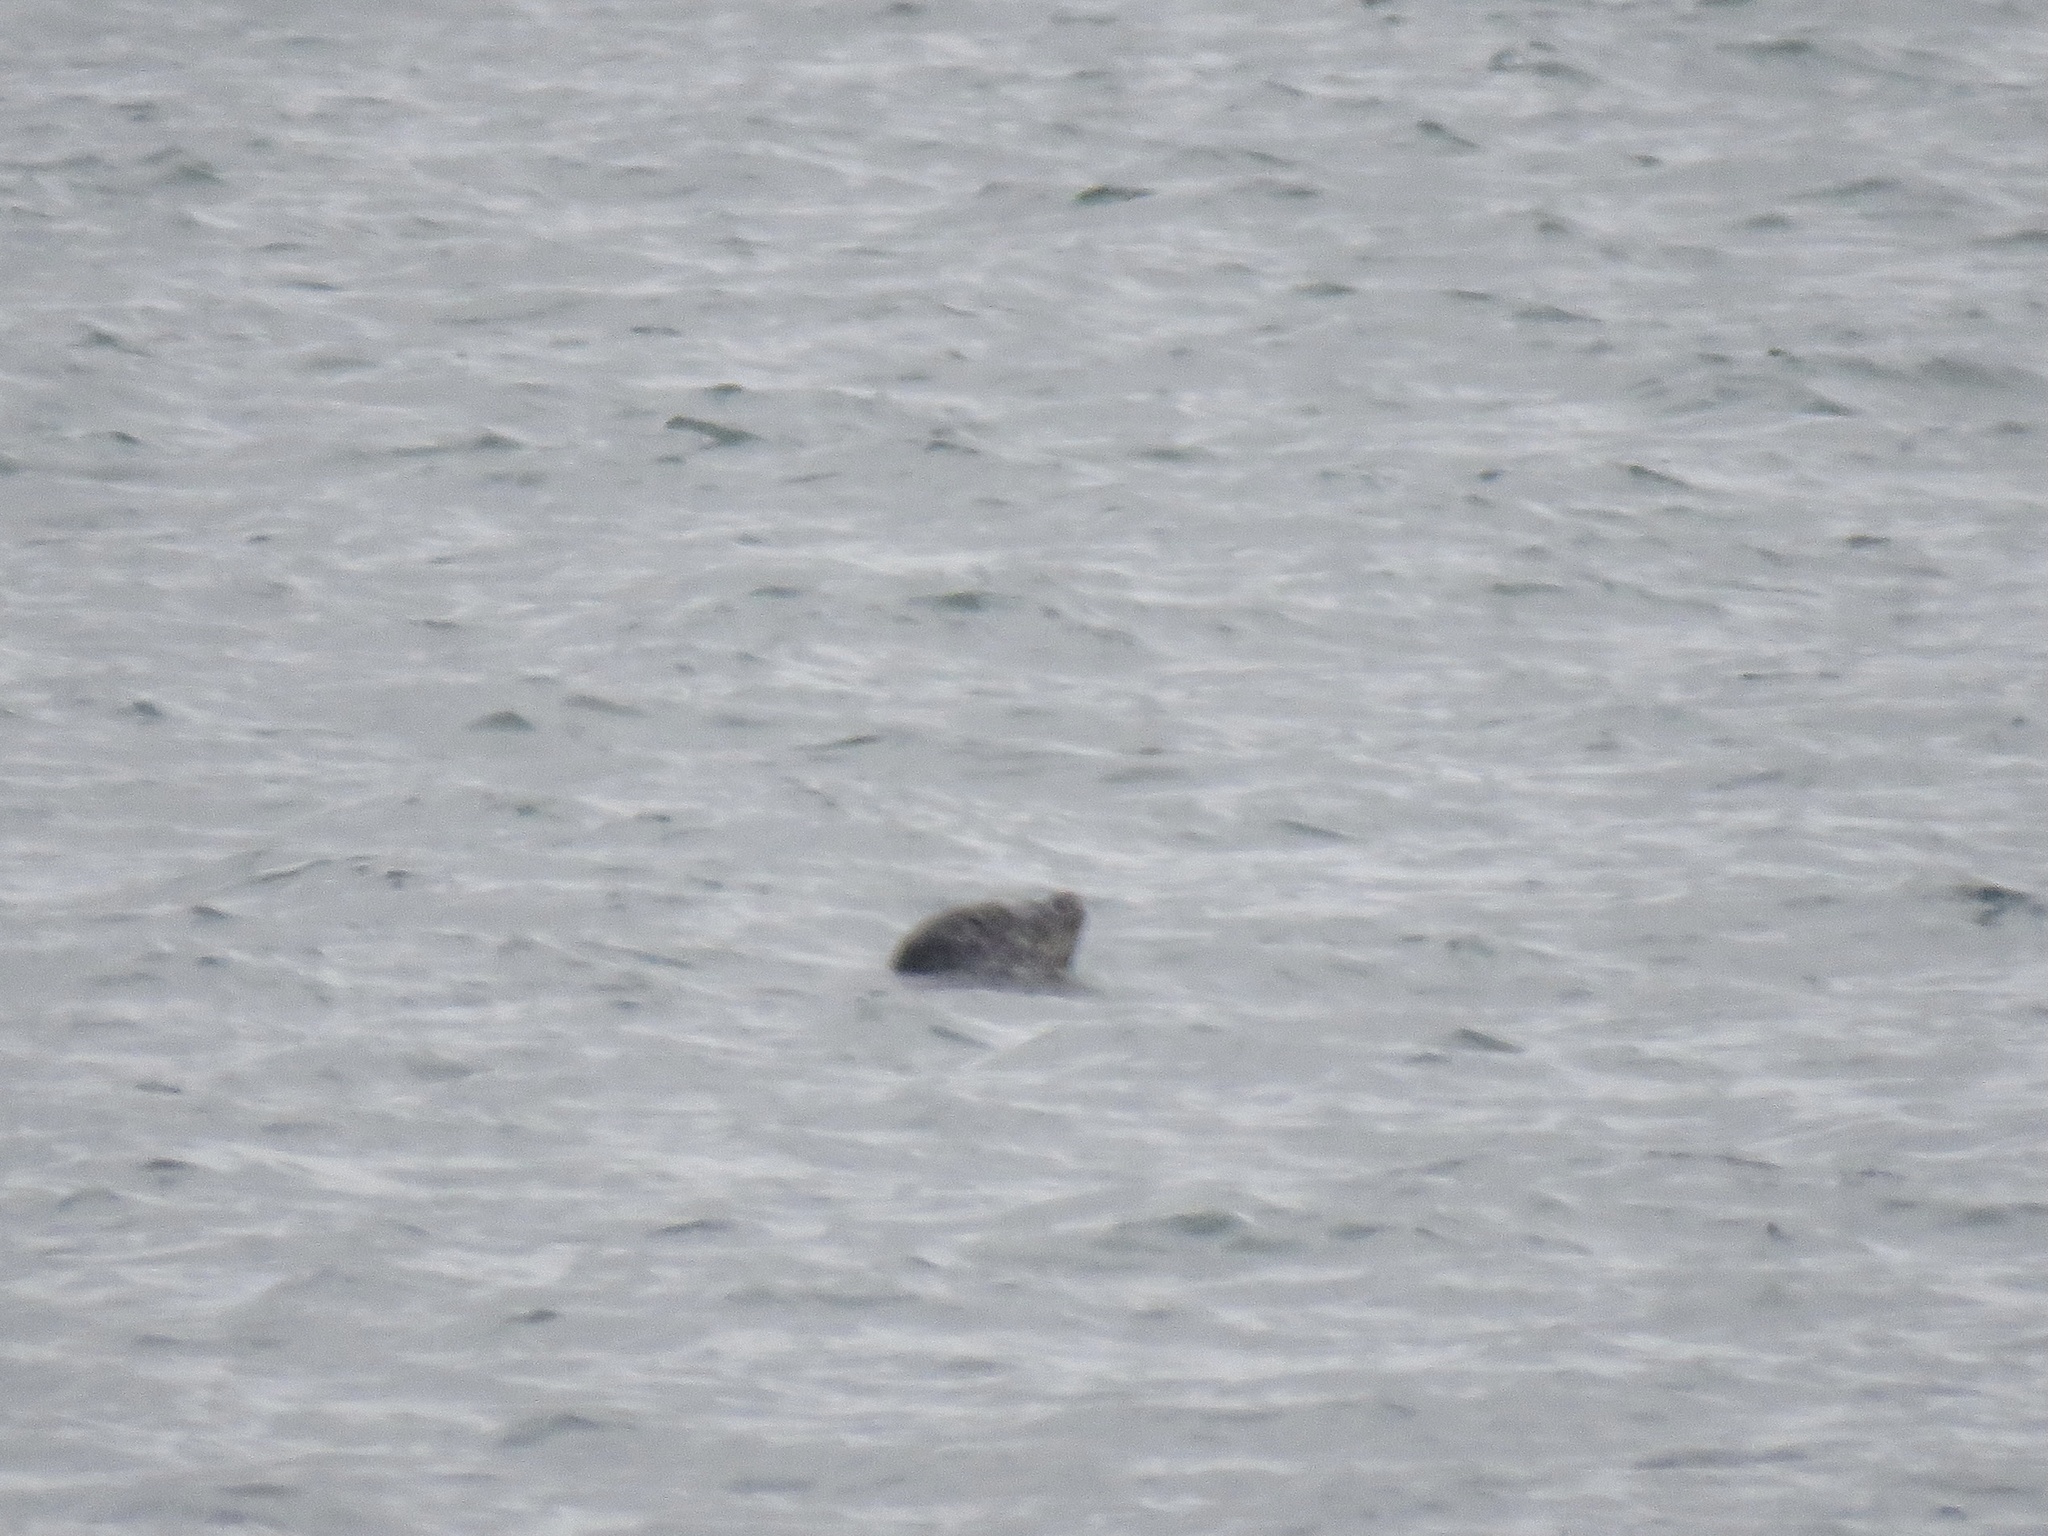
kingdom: Animalia
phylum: Chordata
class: Mammalia
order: Carnivora
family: Phocidae
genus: Phoca
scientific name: Phoca vitulina
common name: Harbor seal
